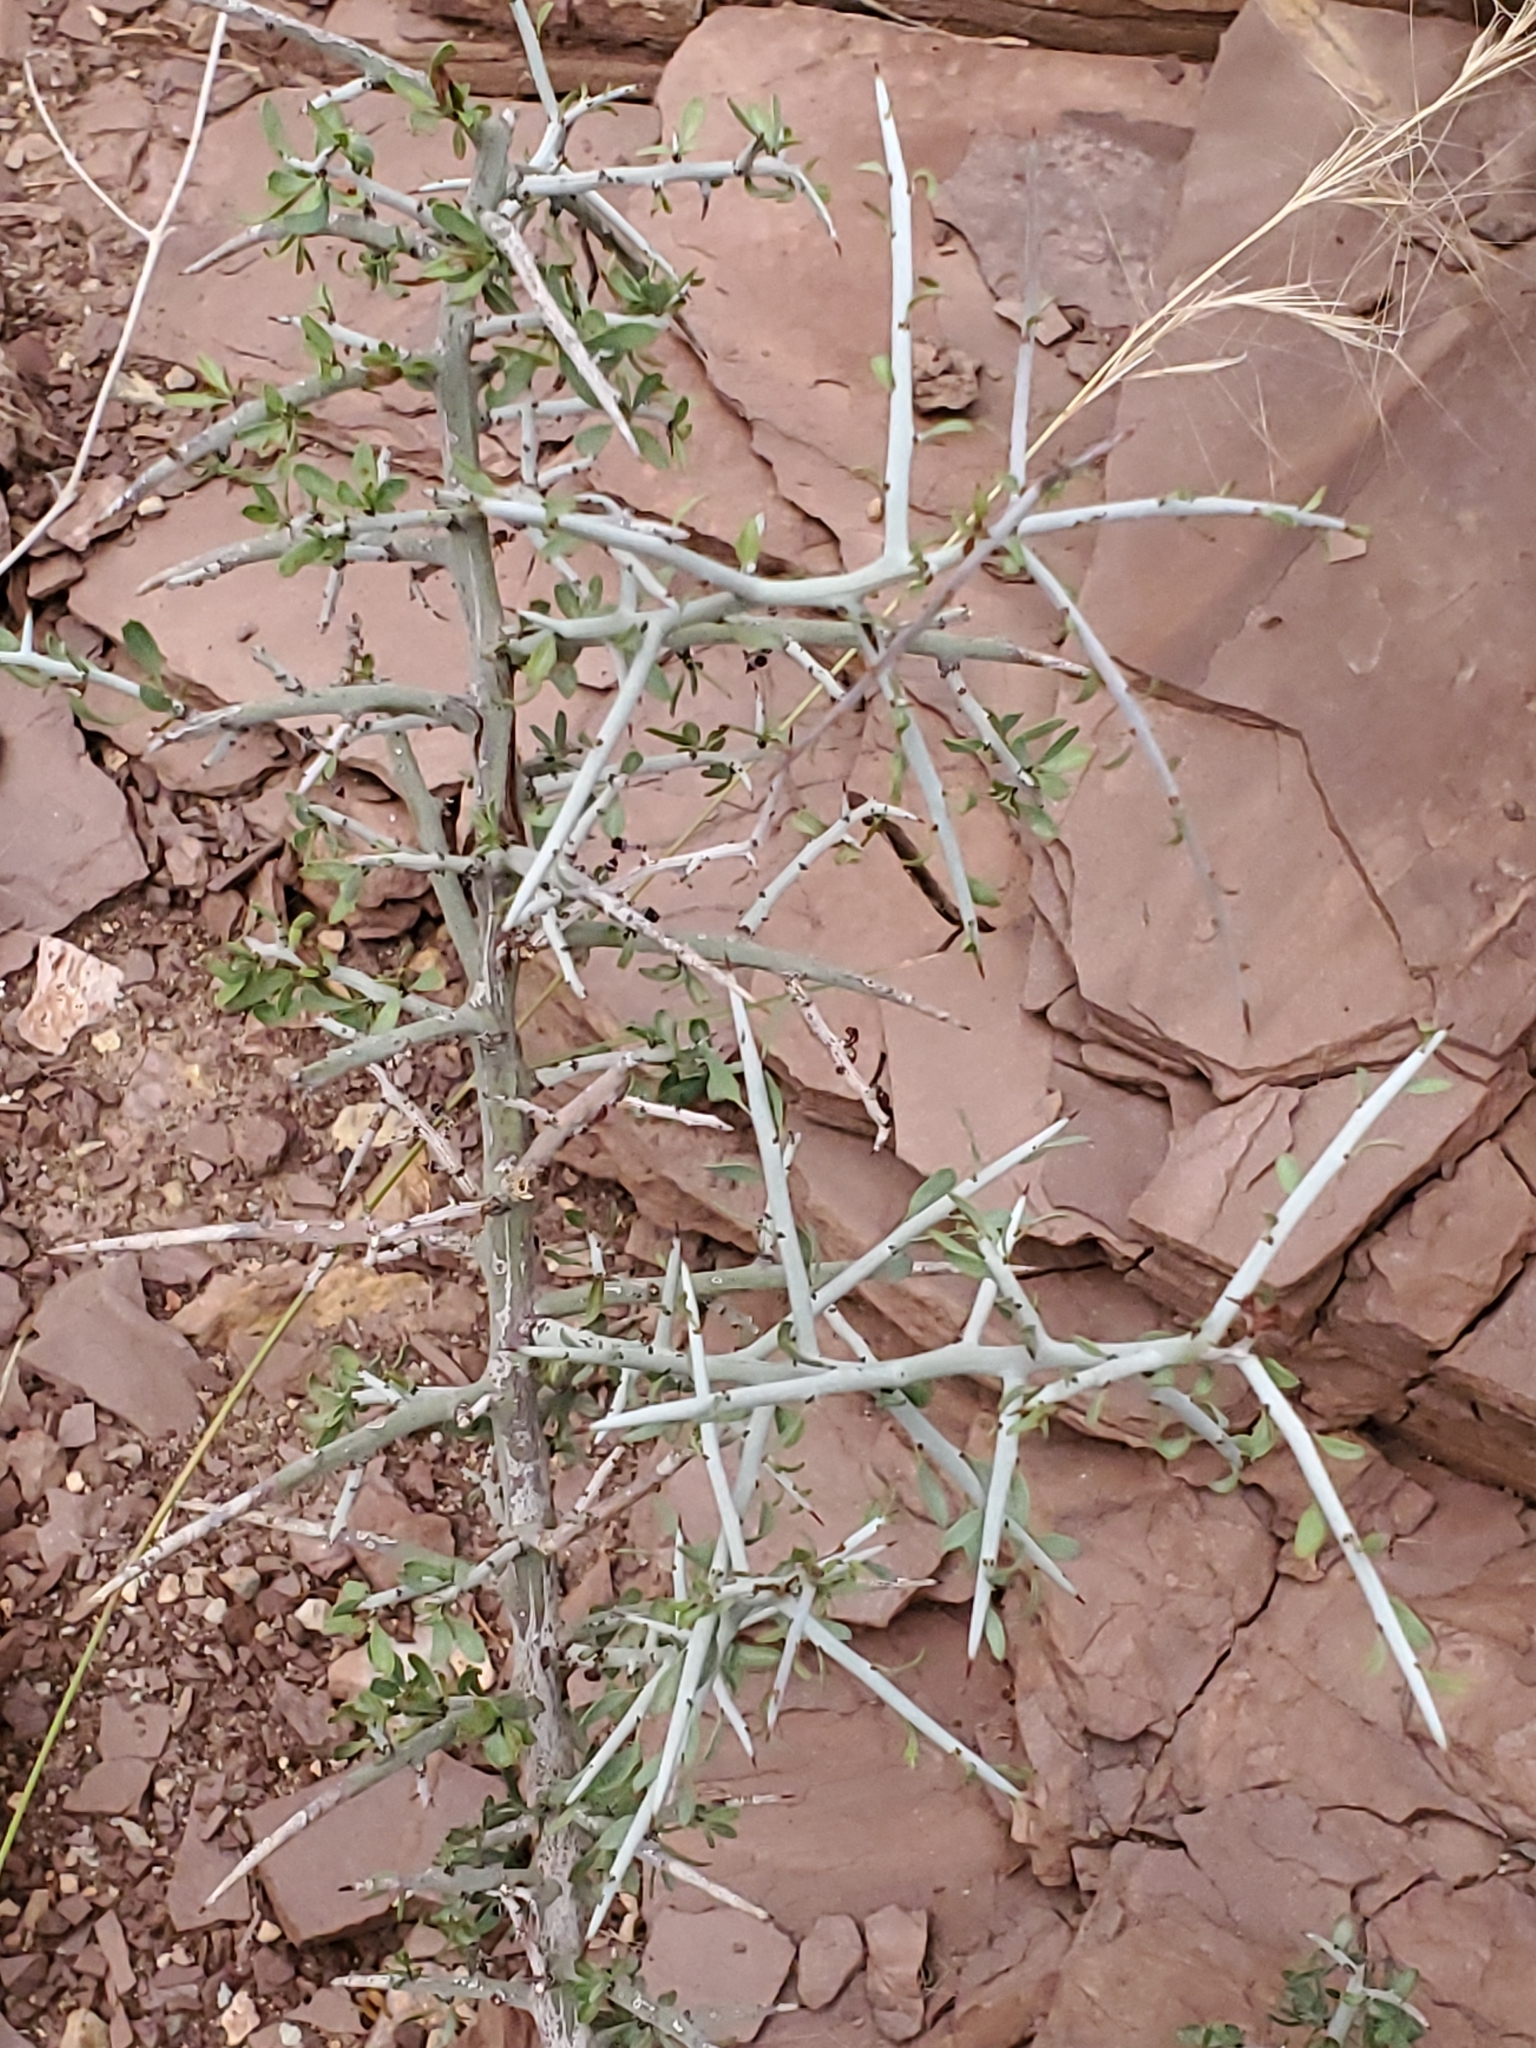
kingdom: Plantae
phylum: Tracheophyta
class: Magnoliopsida
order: Rosales
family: Rhamnaceae
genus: Sarcomphalus
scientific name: Sarcomphalus obtusifolius
